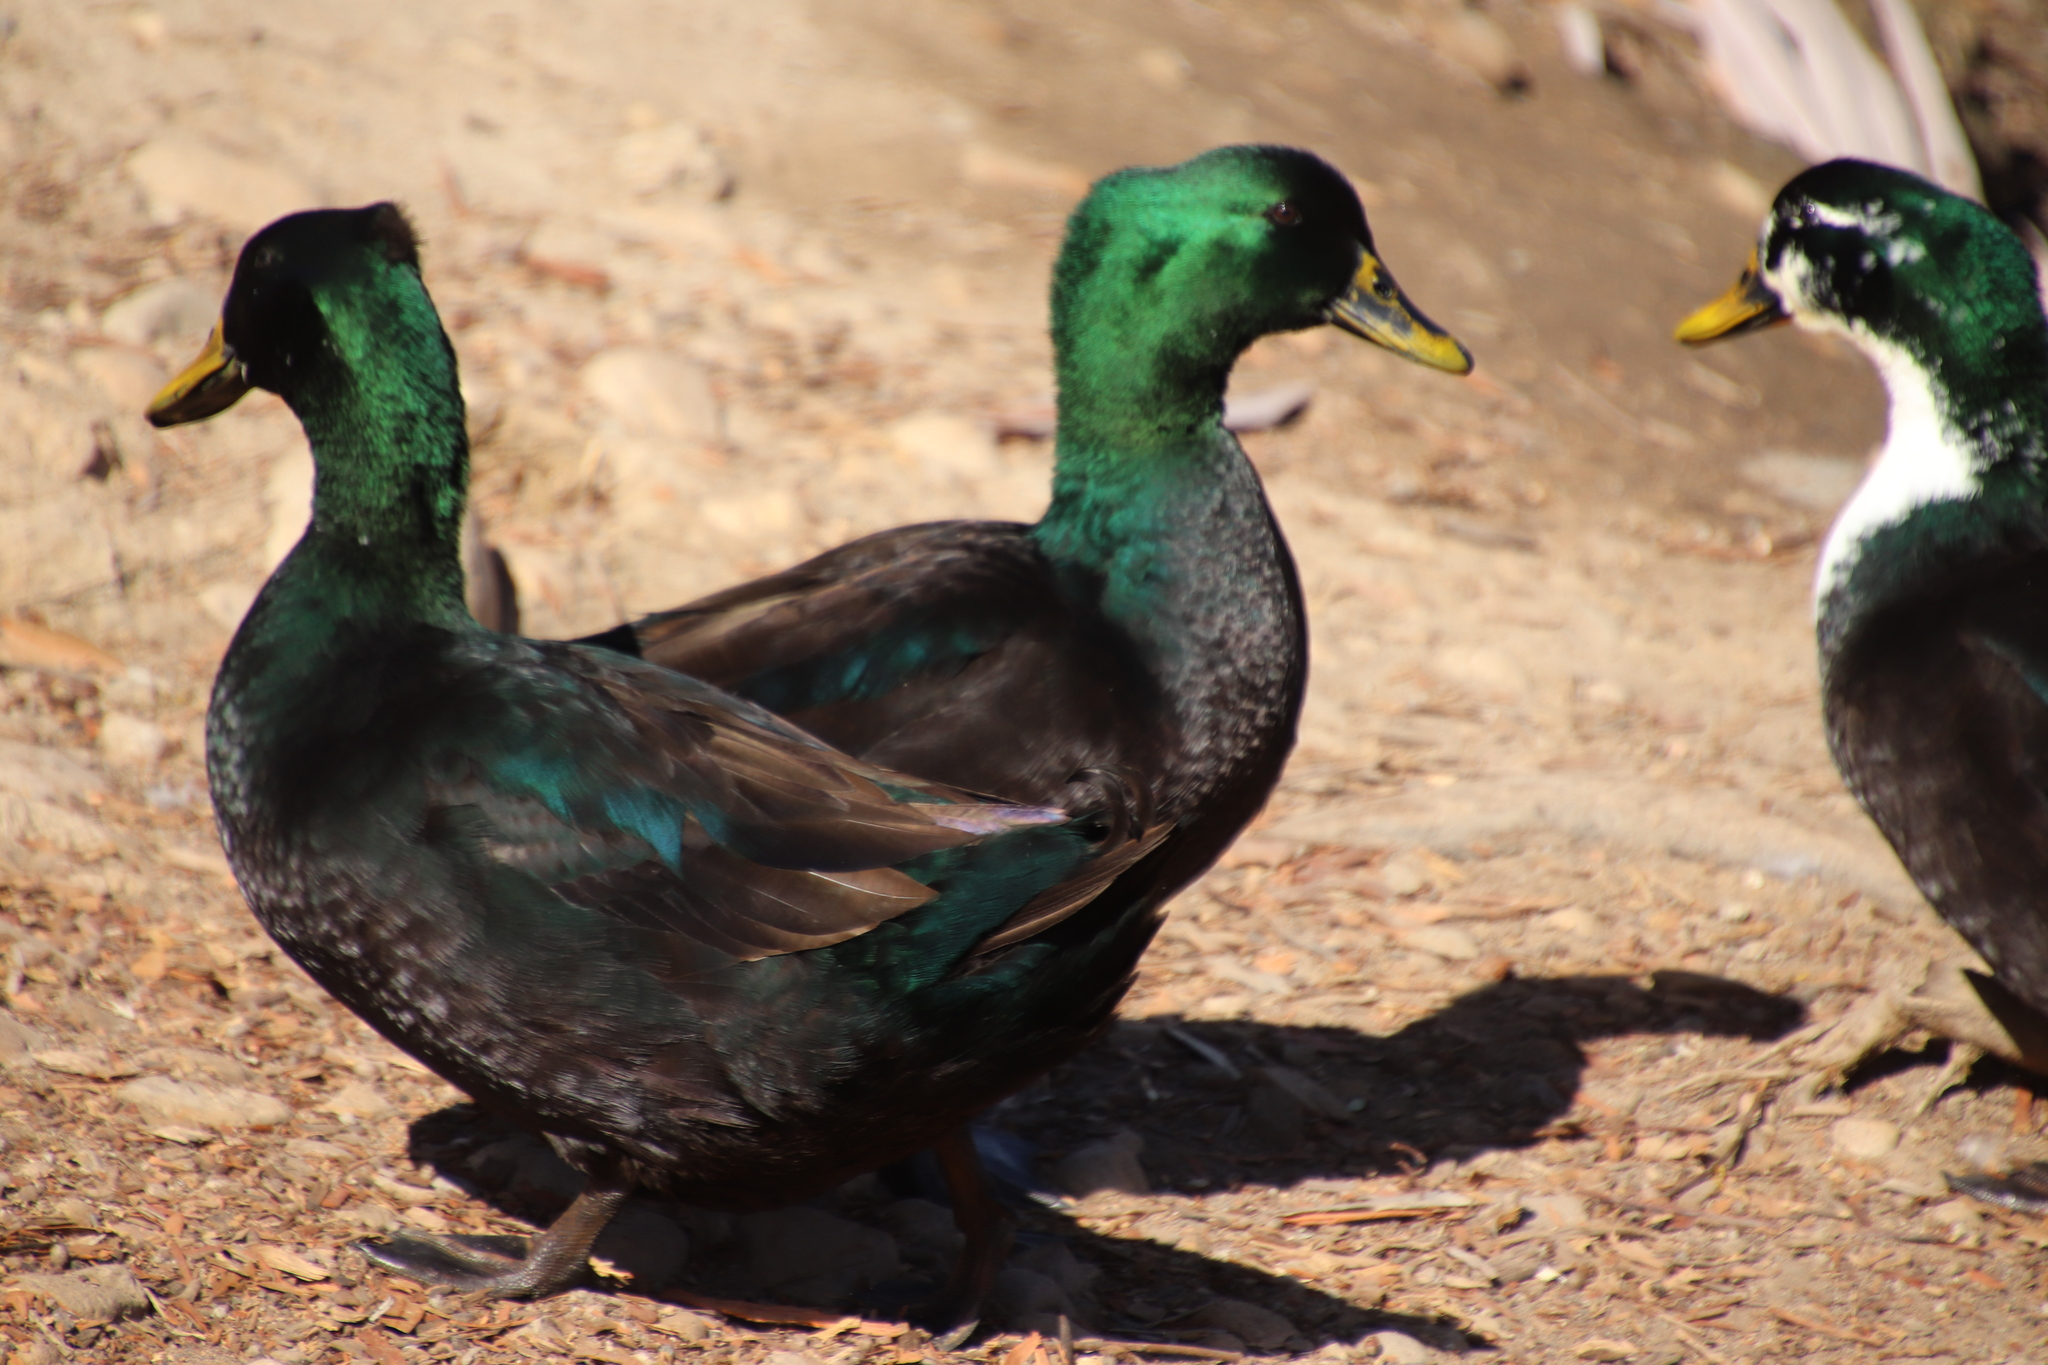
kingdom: Animalia
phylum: Chordata
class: Aves
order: Anseriformes
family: Anatidae
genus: Anas
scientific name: Anas platyrhynchos
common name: Mallard
